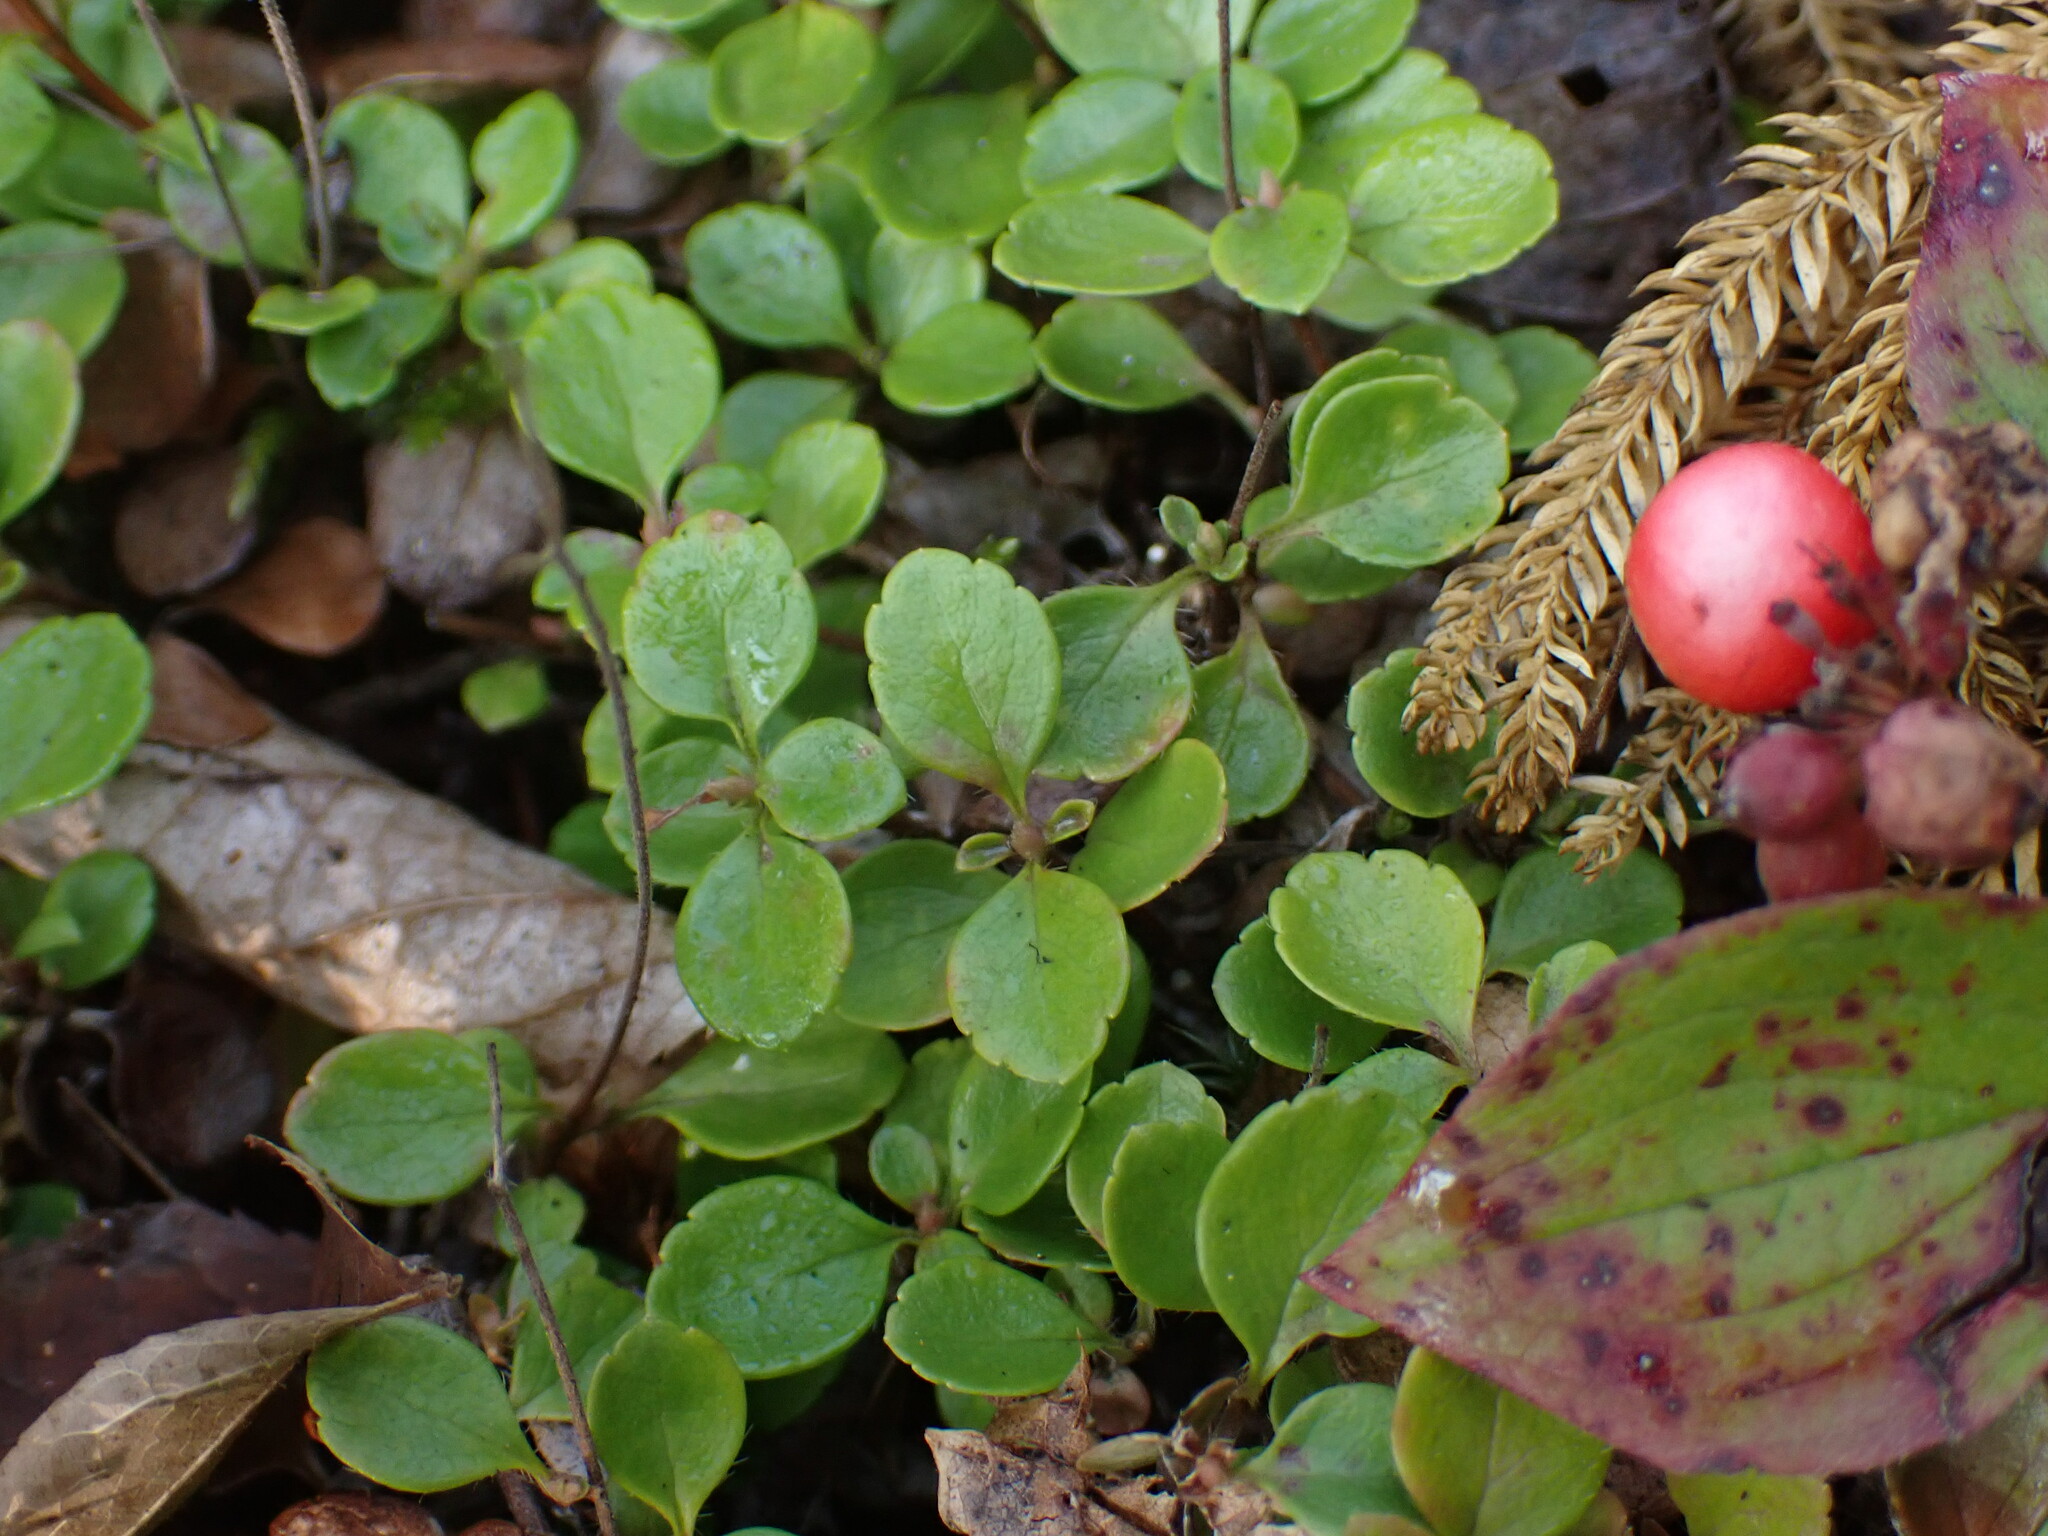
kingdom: Plantae
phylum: Tracheophyta
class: Magnoliopsida
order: Dipsacales
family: Caprifoliaceae
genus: Linnaea
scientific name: Linnaea borealis
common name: Twinflower
